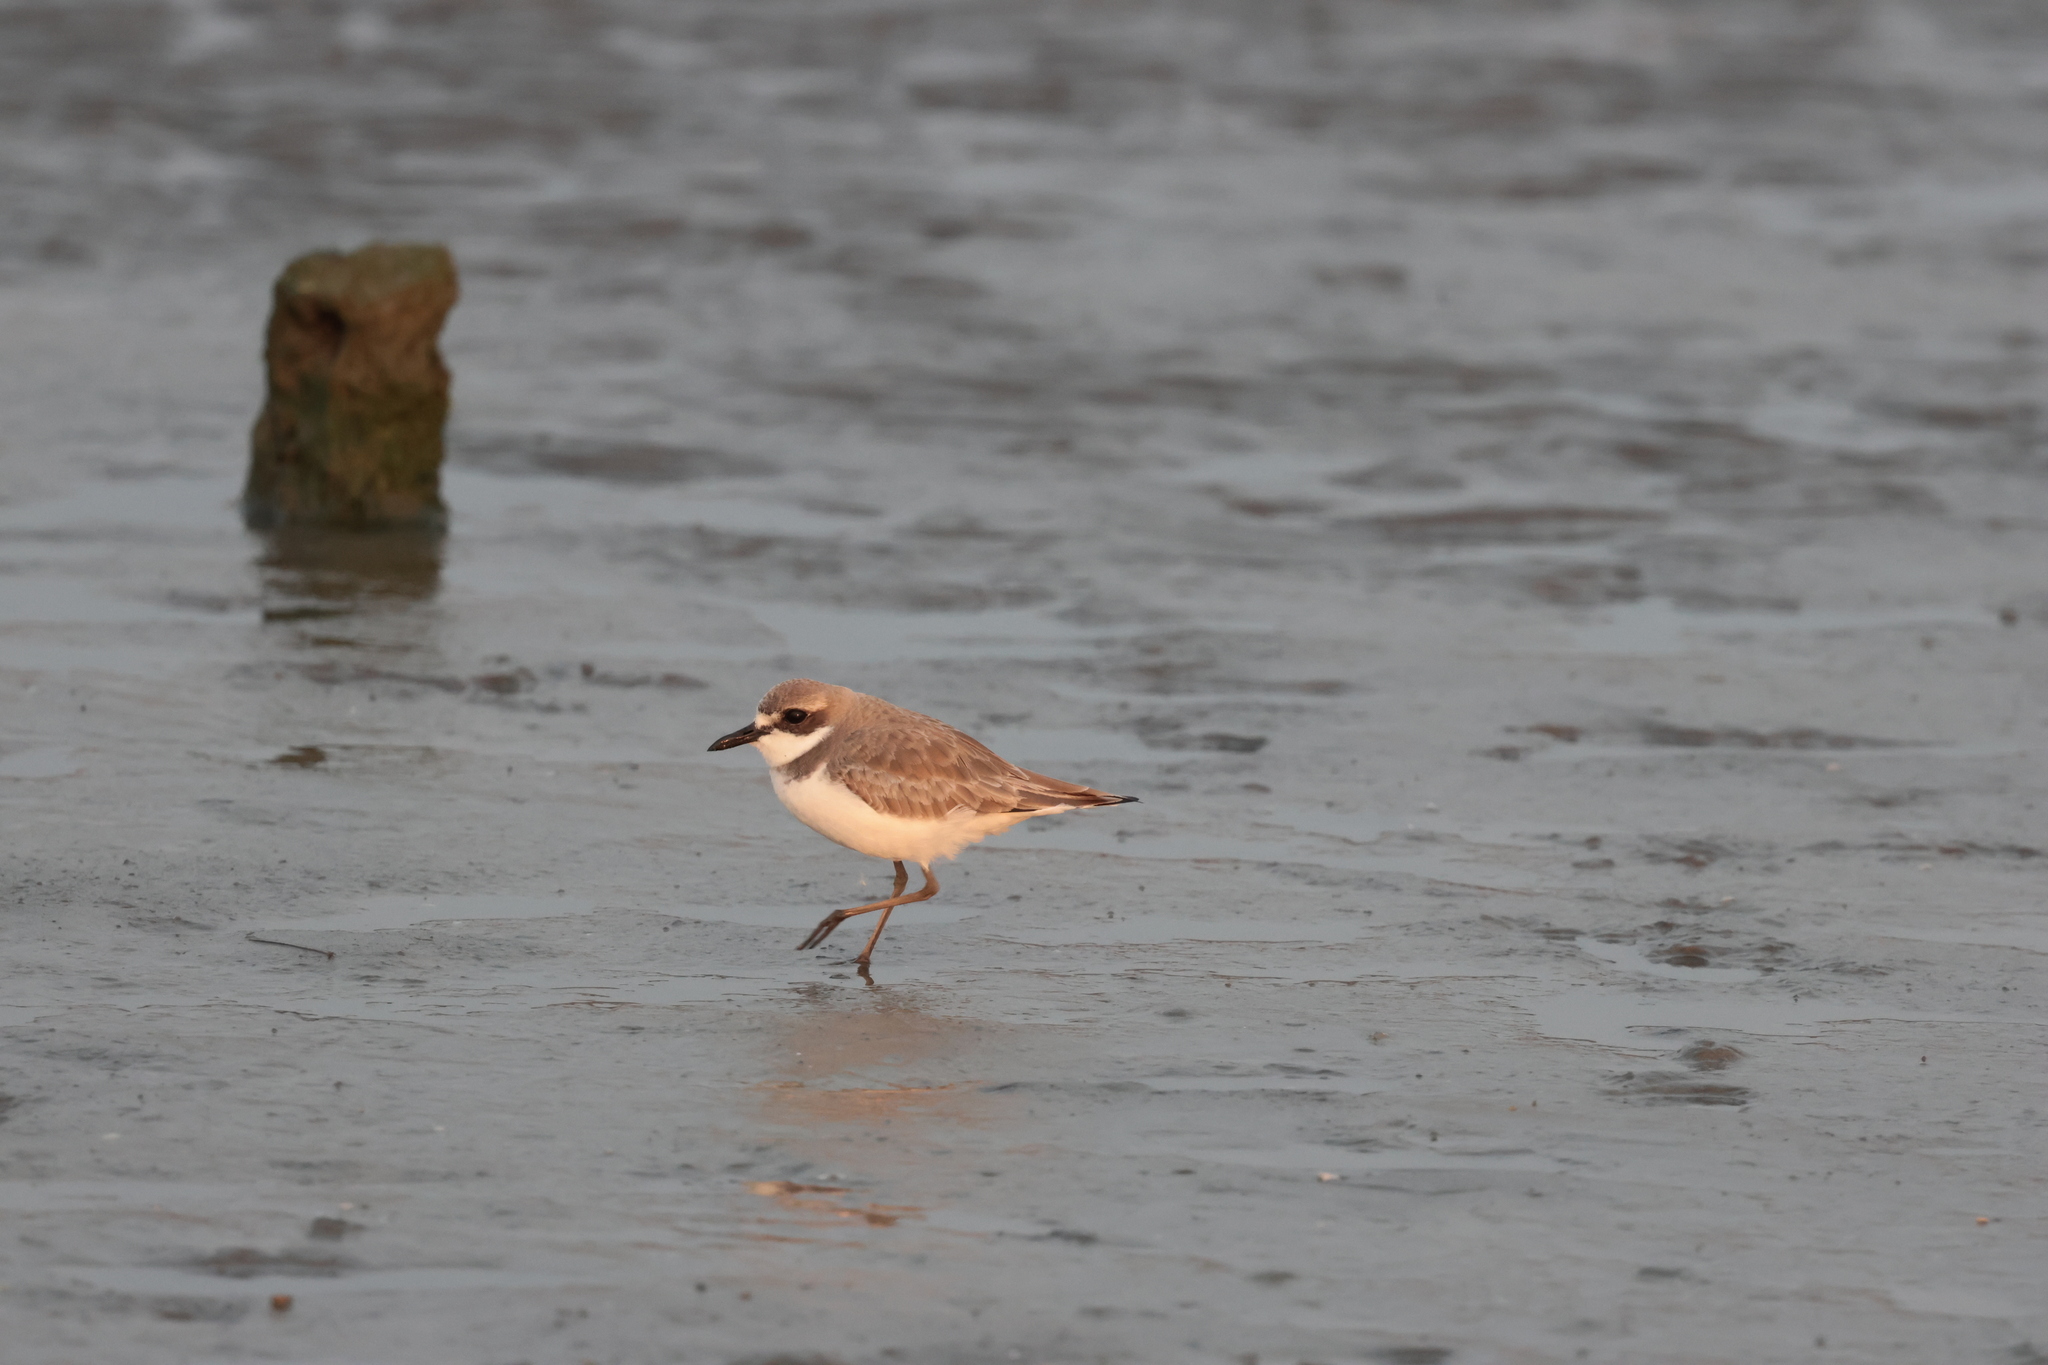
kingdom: Animalia
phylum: Chordata
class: Aves
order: Charadriiformes
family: Charadriidae
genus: Charadrius
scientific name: Charadrius leschenaultii
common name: Greater sand plover
